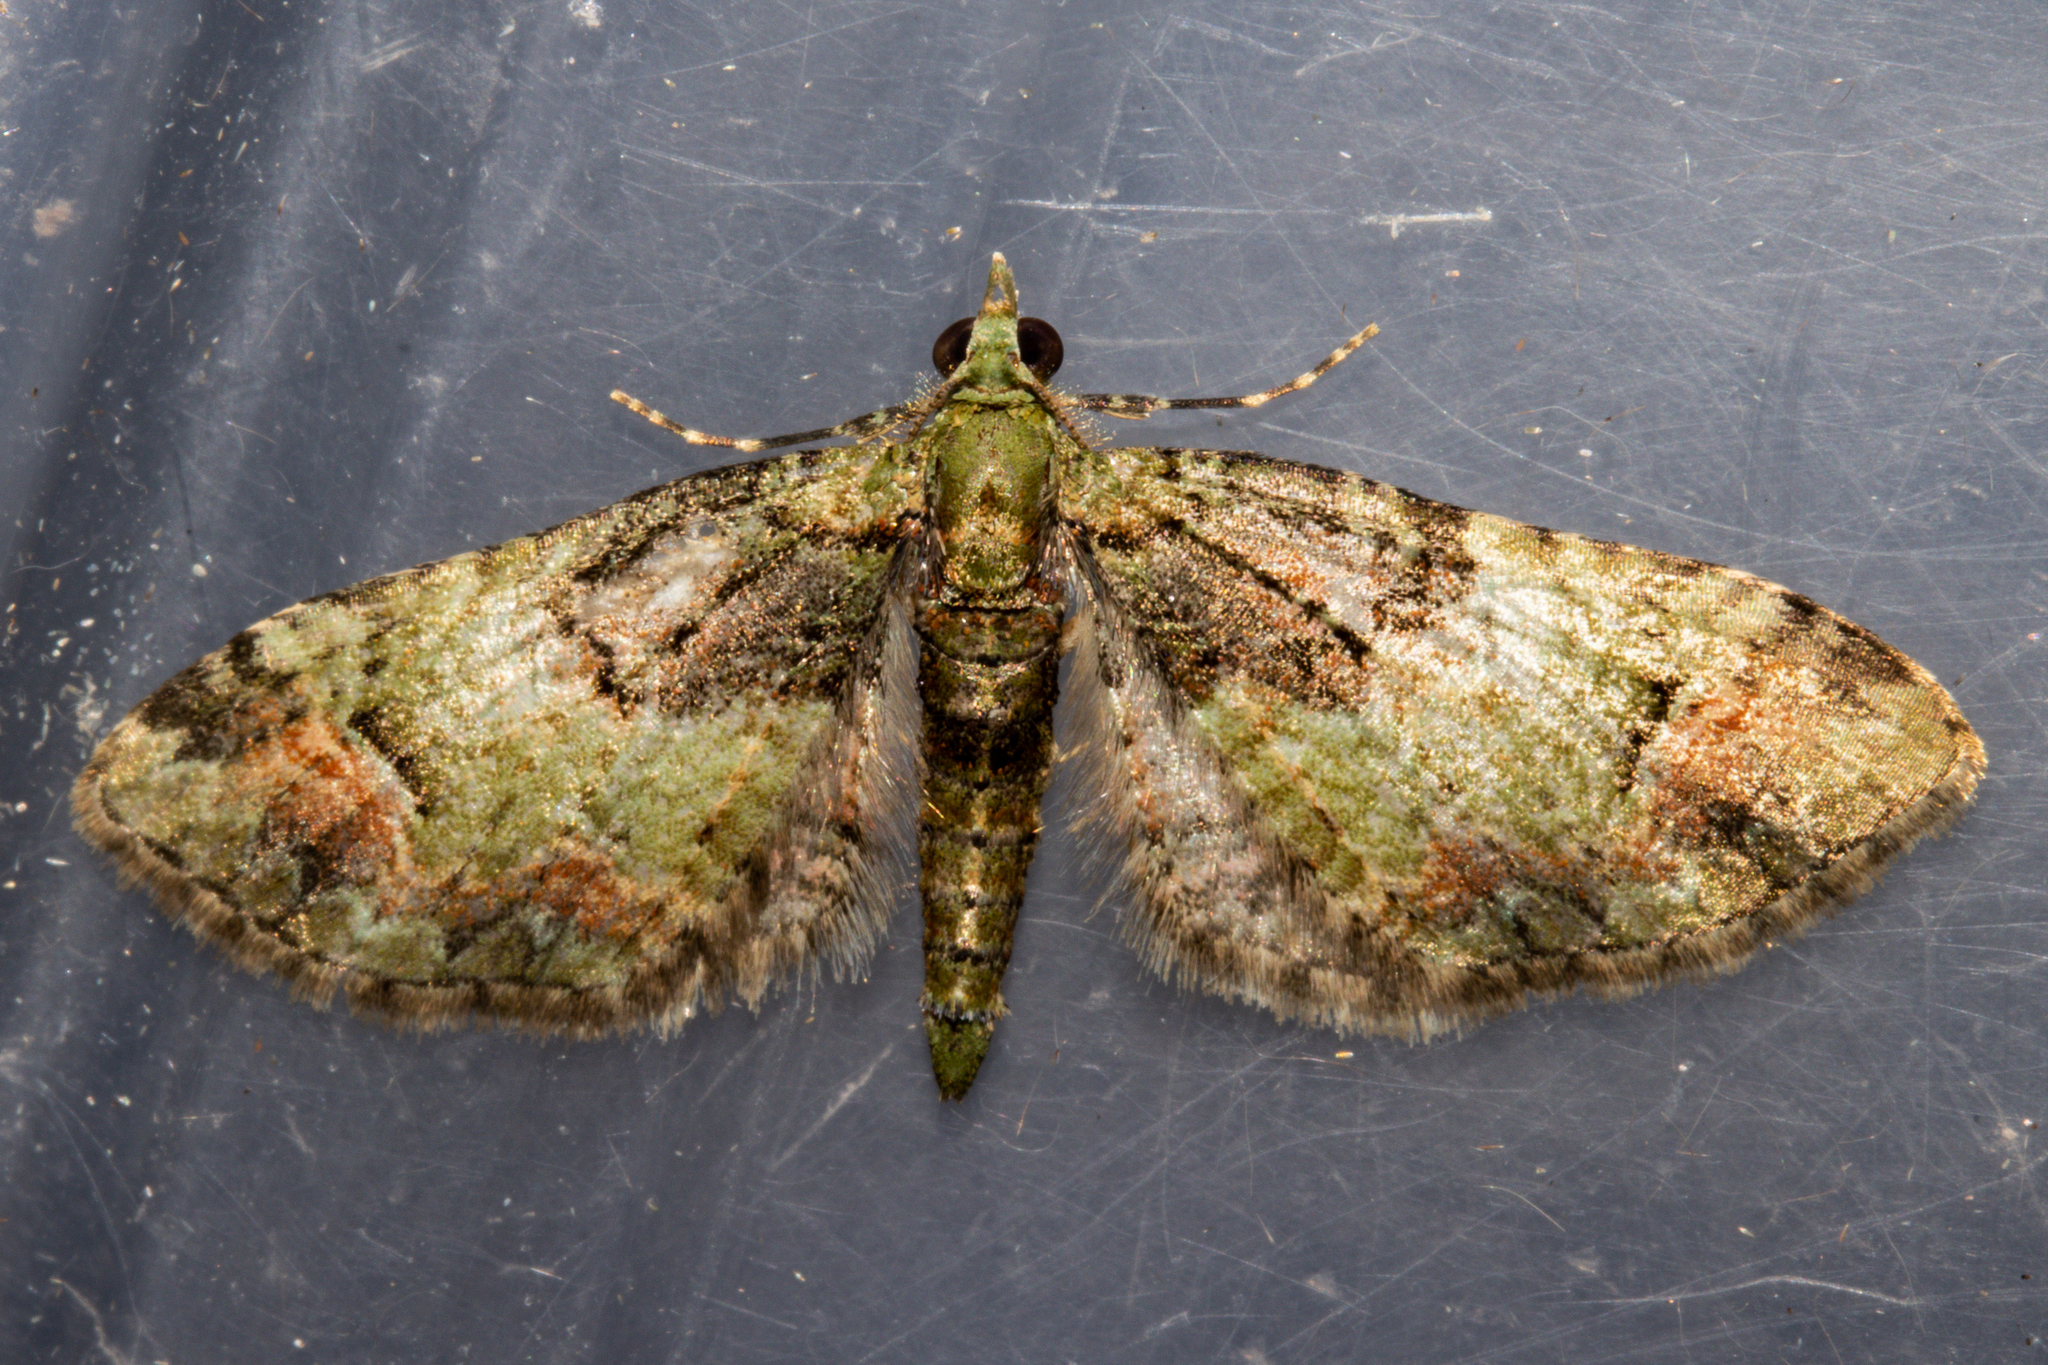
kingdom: Animalia
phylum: Arthropoda
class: Insecta
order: Lepidoptera
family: Geometridae
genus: Idaea
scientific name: Idaea mutanda
